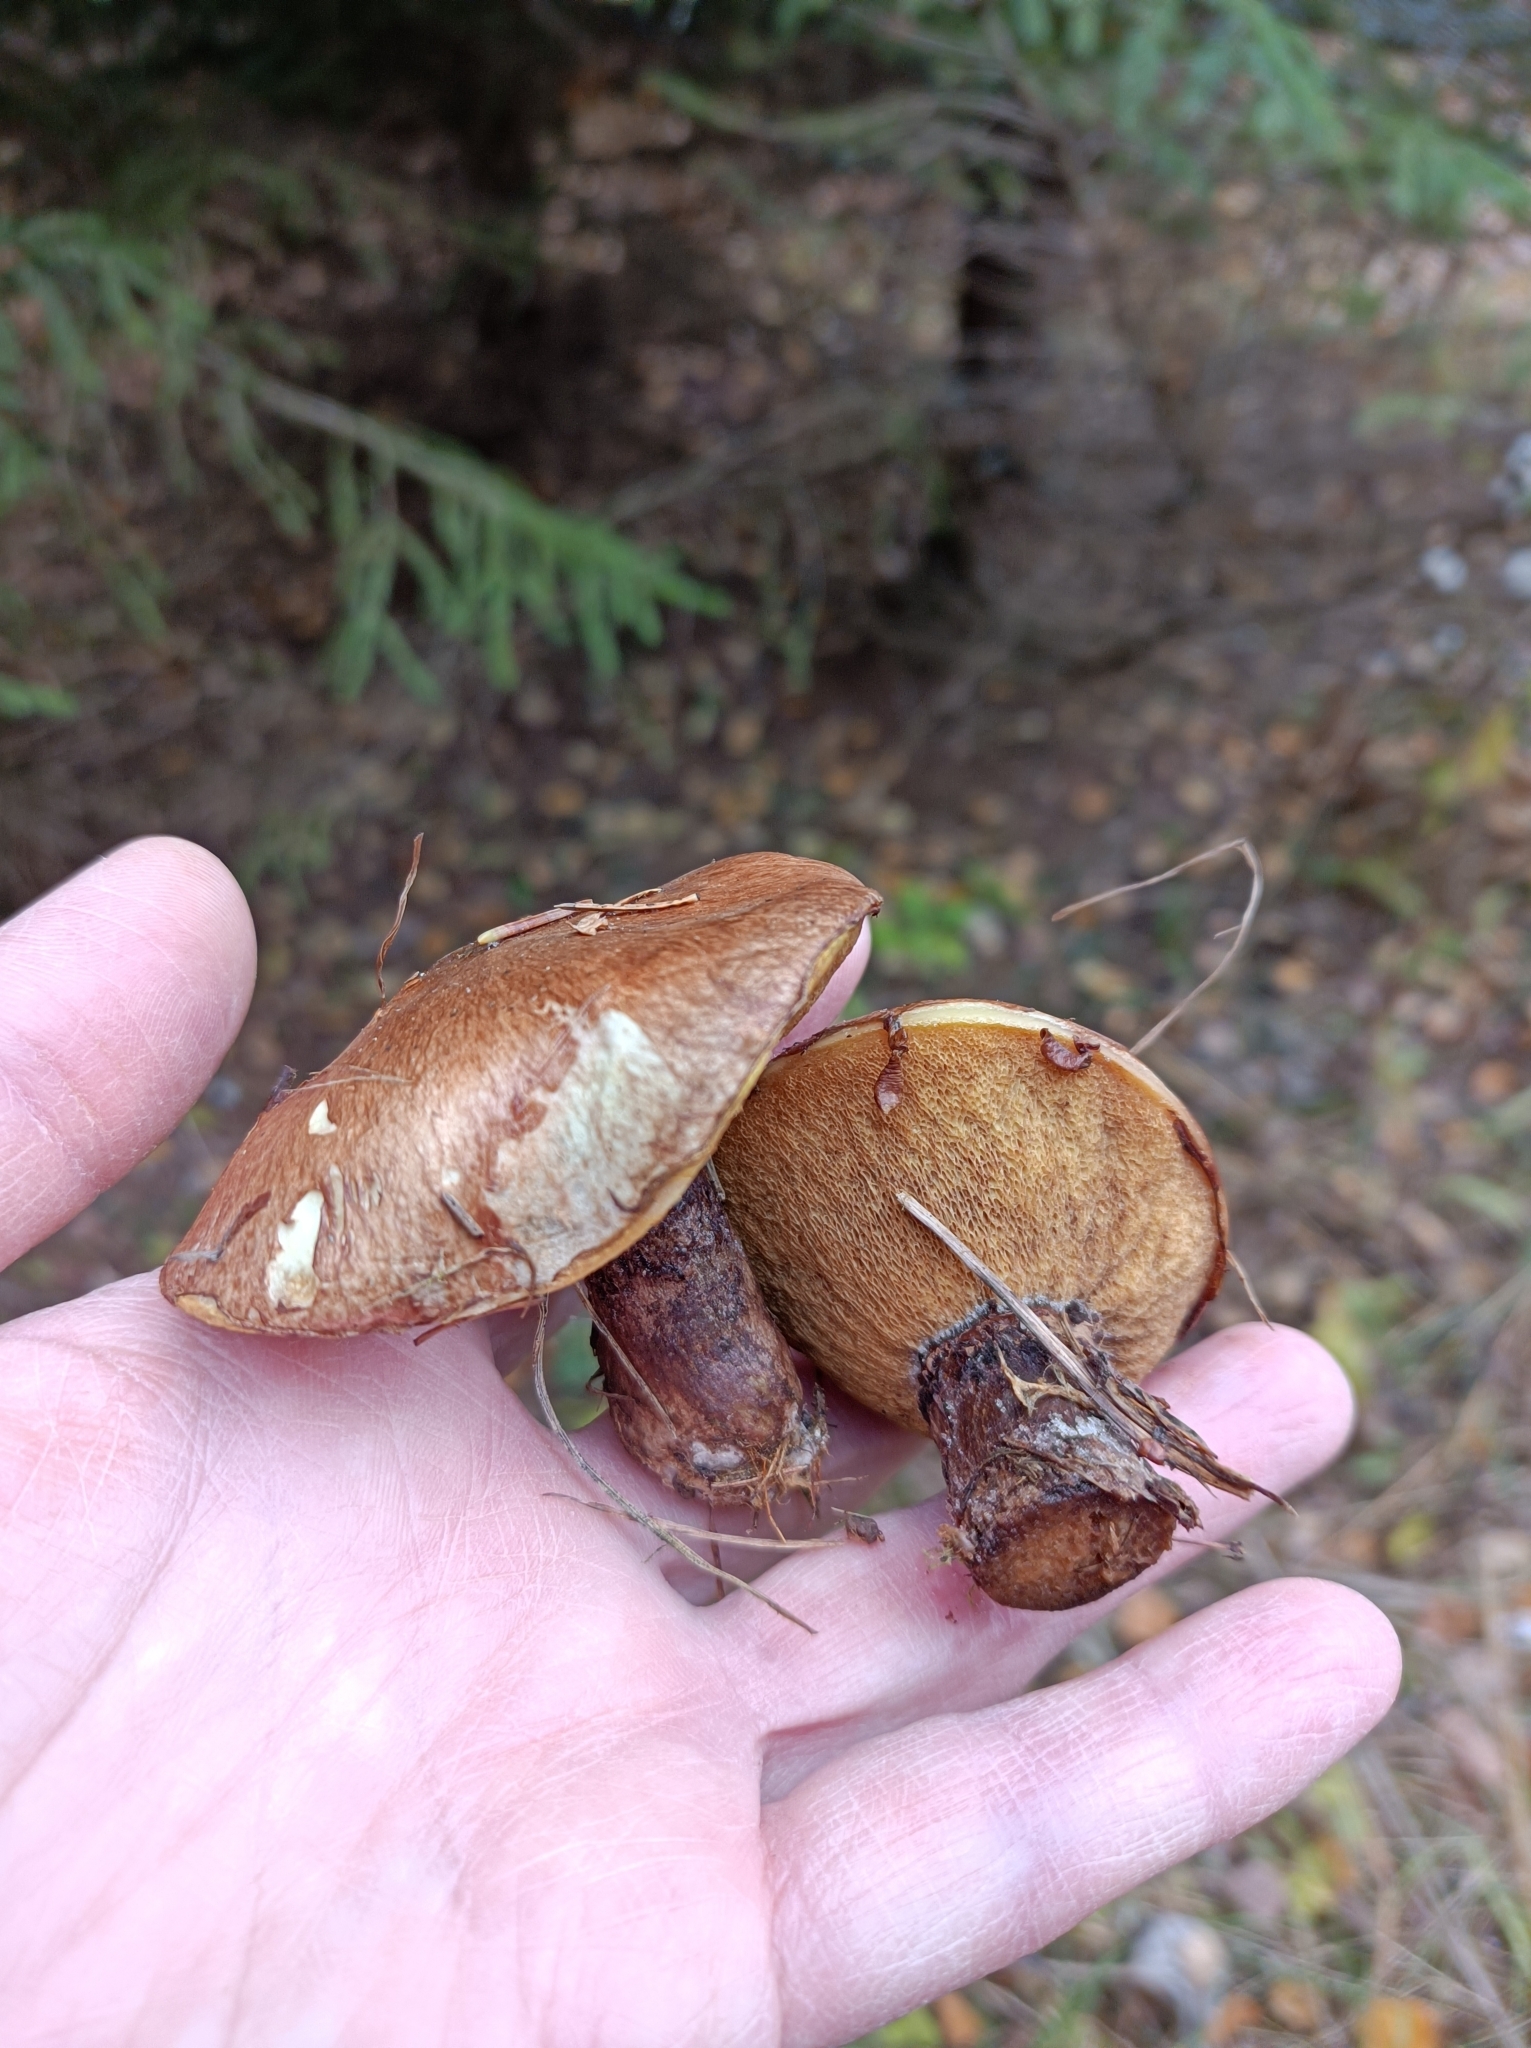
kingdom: Fungi
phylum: Basidiomycota
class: Agaricomycetes
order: Boletales
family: Suillaceae
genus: Suillus
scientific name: Suillus luteus
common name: Slippery jack
